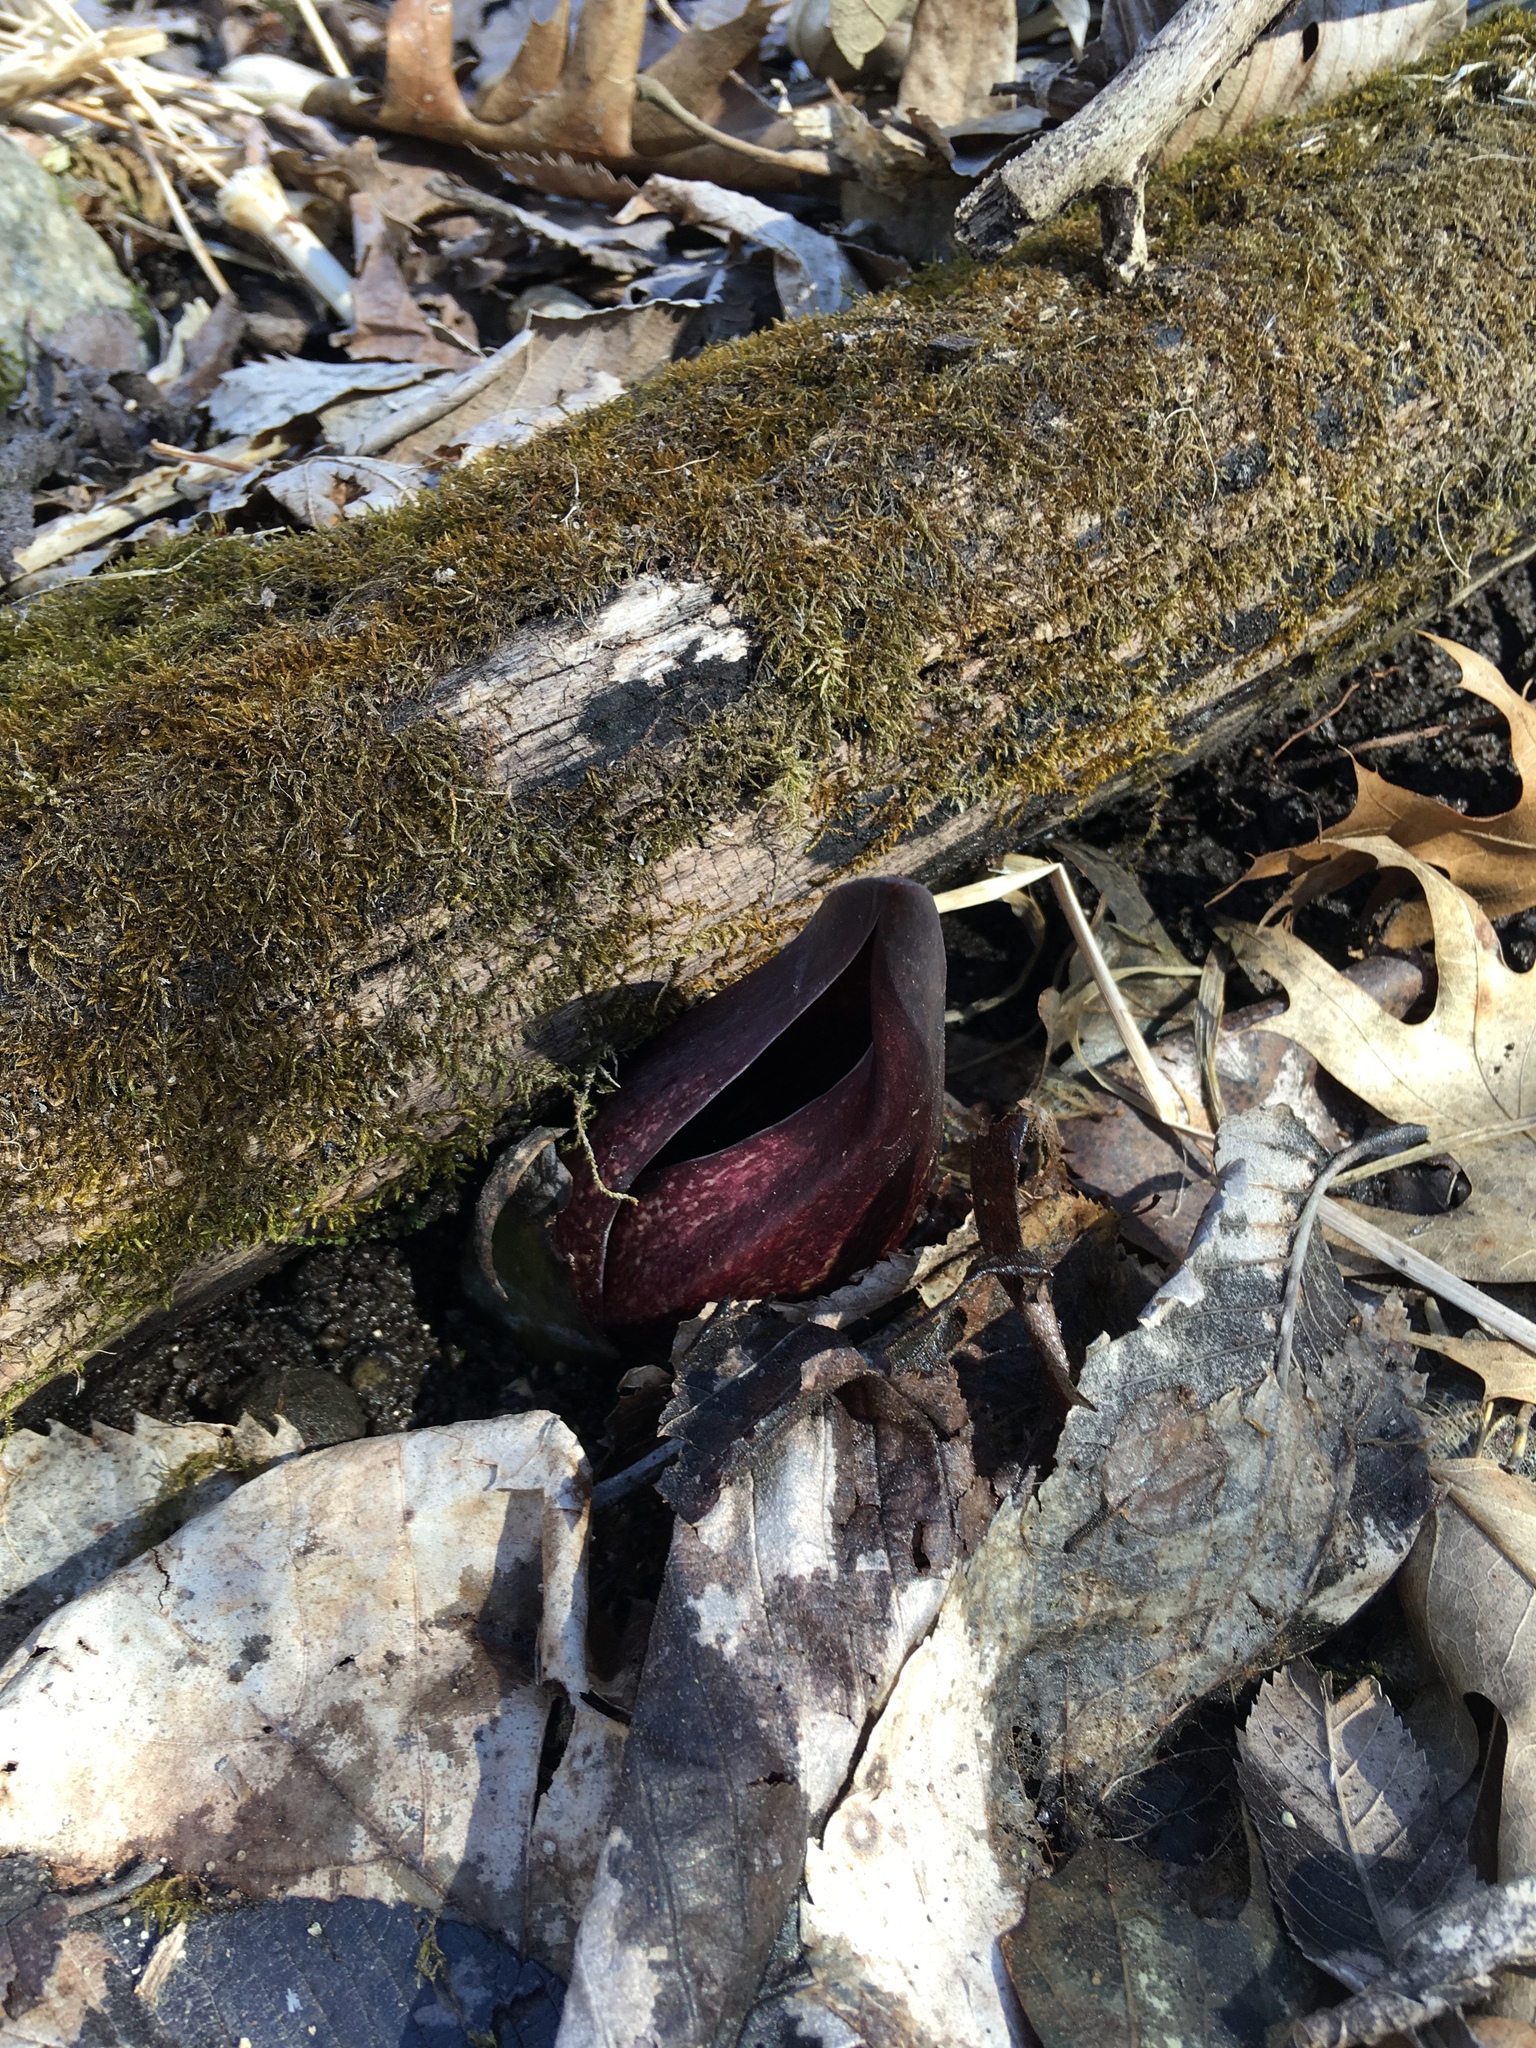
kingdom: Plantae
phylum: Tracheophyta
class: Liliopsida
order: Alismatales
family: Araceae
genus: Symplocarpus
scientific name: Symplocarpus foetidus
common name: Eastern skunk cabbage
